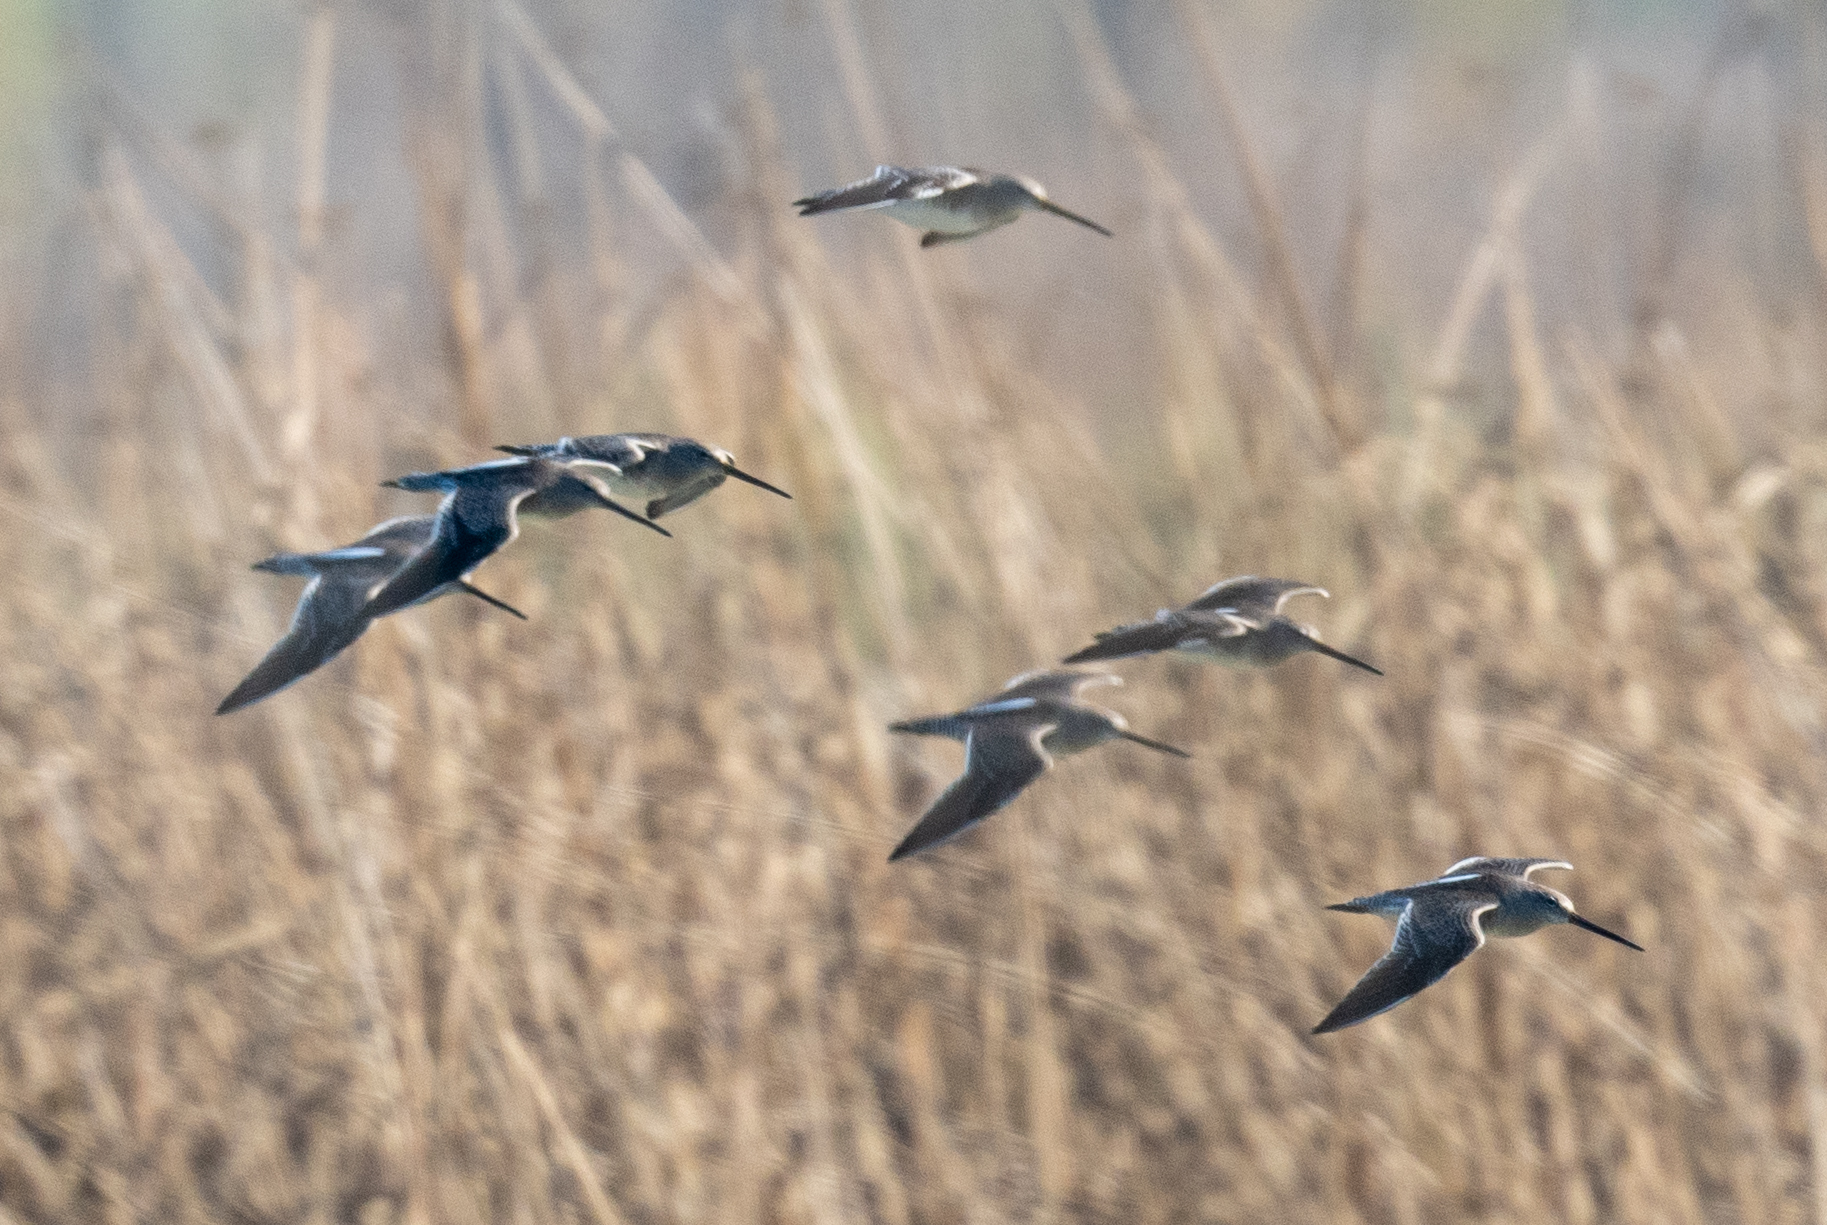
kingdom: Animalia
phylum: Chordata
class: Aves
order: Charadriiformes
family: Scolopacidae
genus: Limnodromus
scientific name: Limnodromus scolopaceus
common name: Long-billed dowitcher
